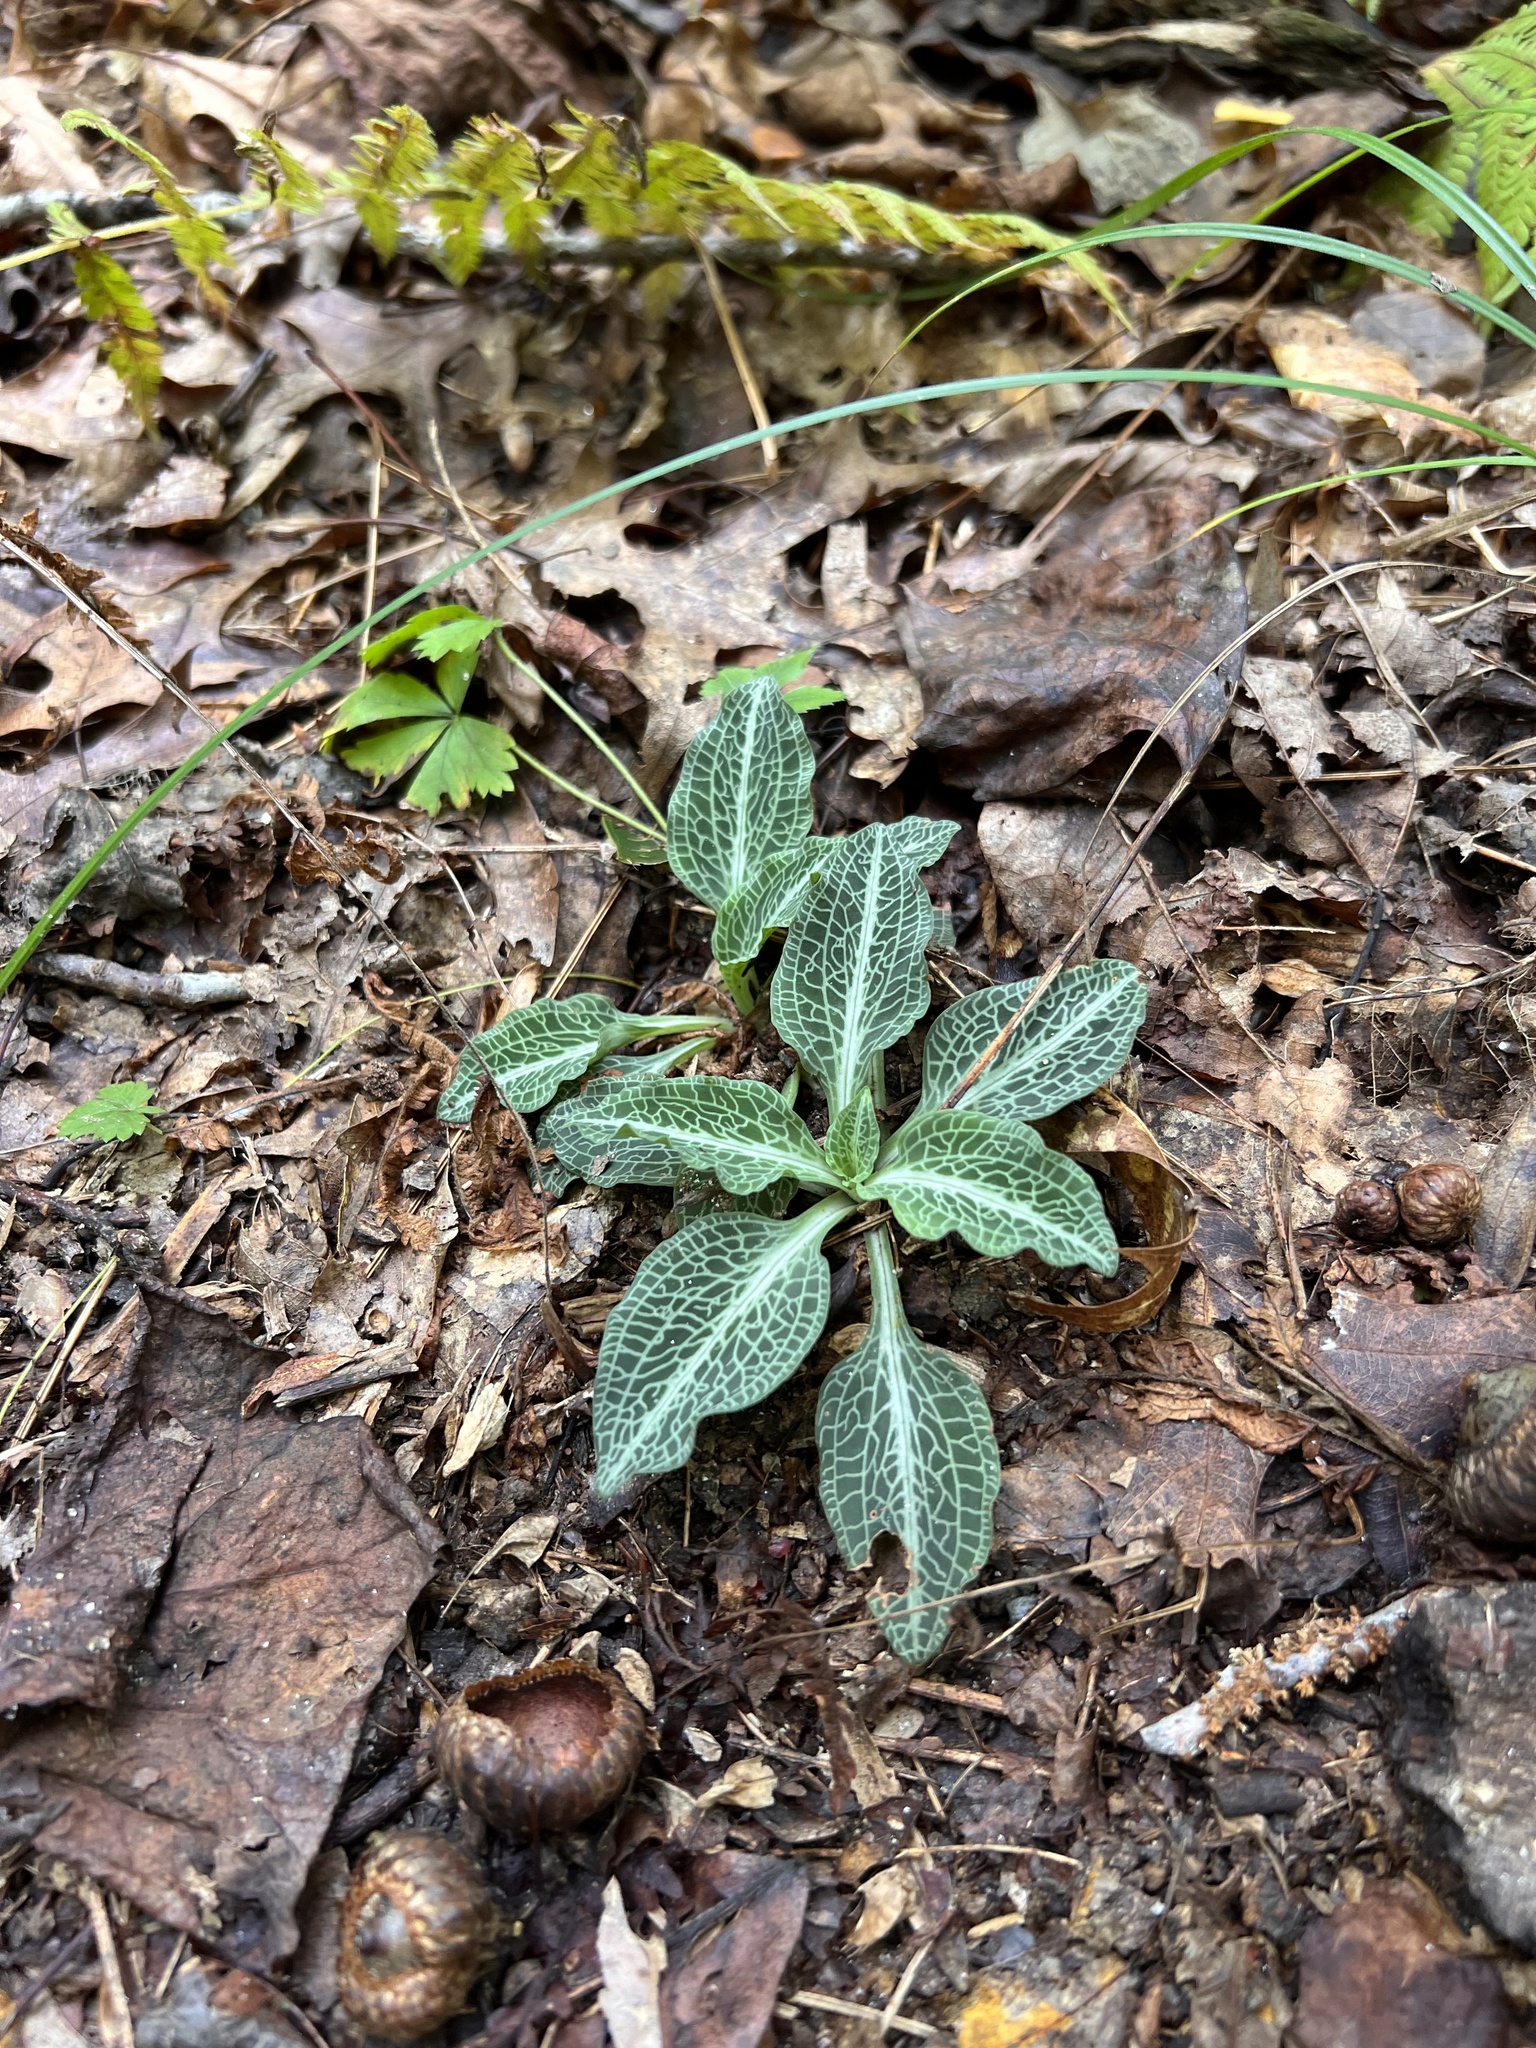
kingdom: Plantae
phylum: Tracheophyta
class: Liliopsida
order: Asparagales
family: Orchidaceae
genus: Goodyera
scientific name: Goodyera pubescens
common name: Downy rattlesnake-plantain
